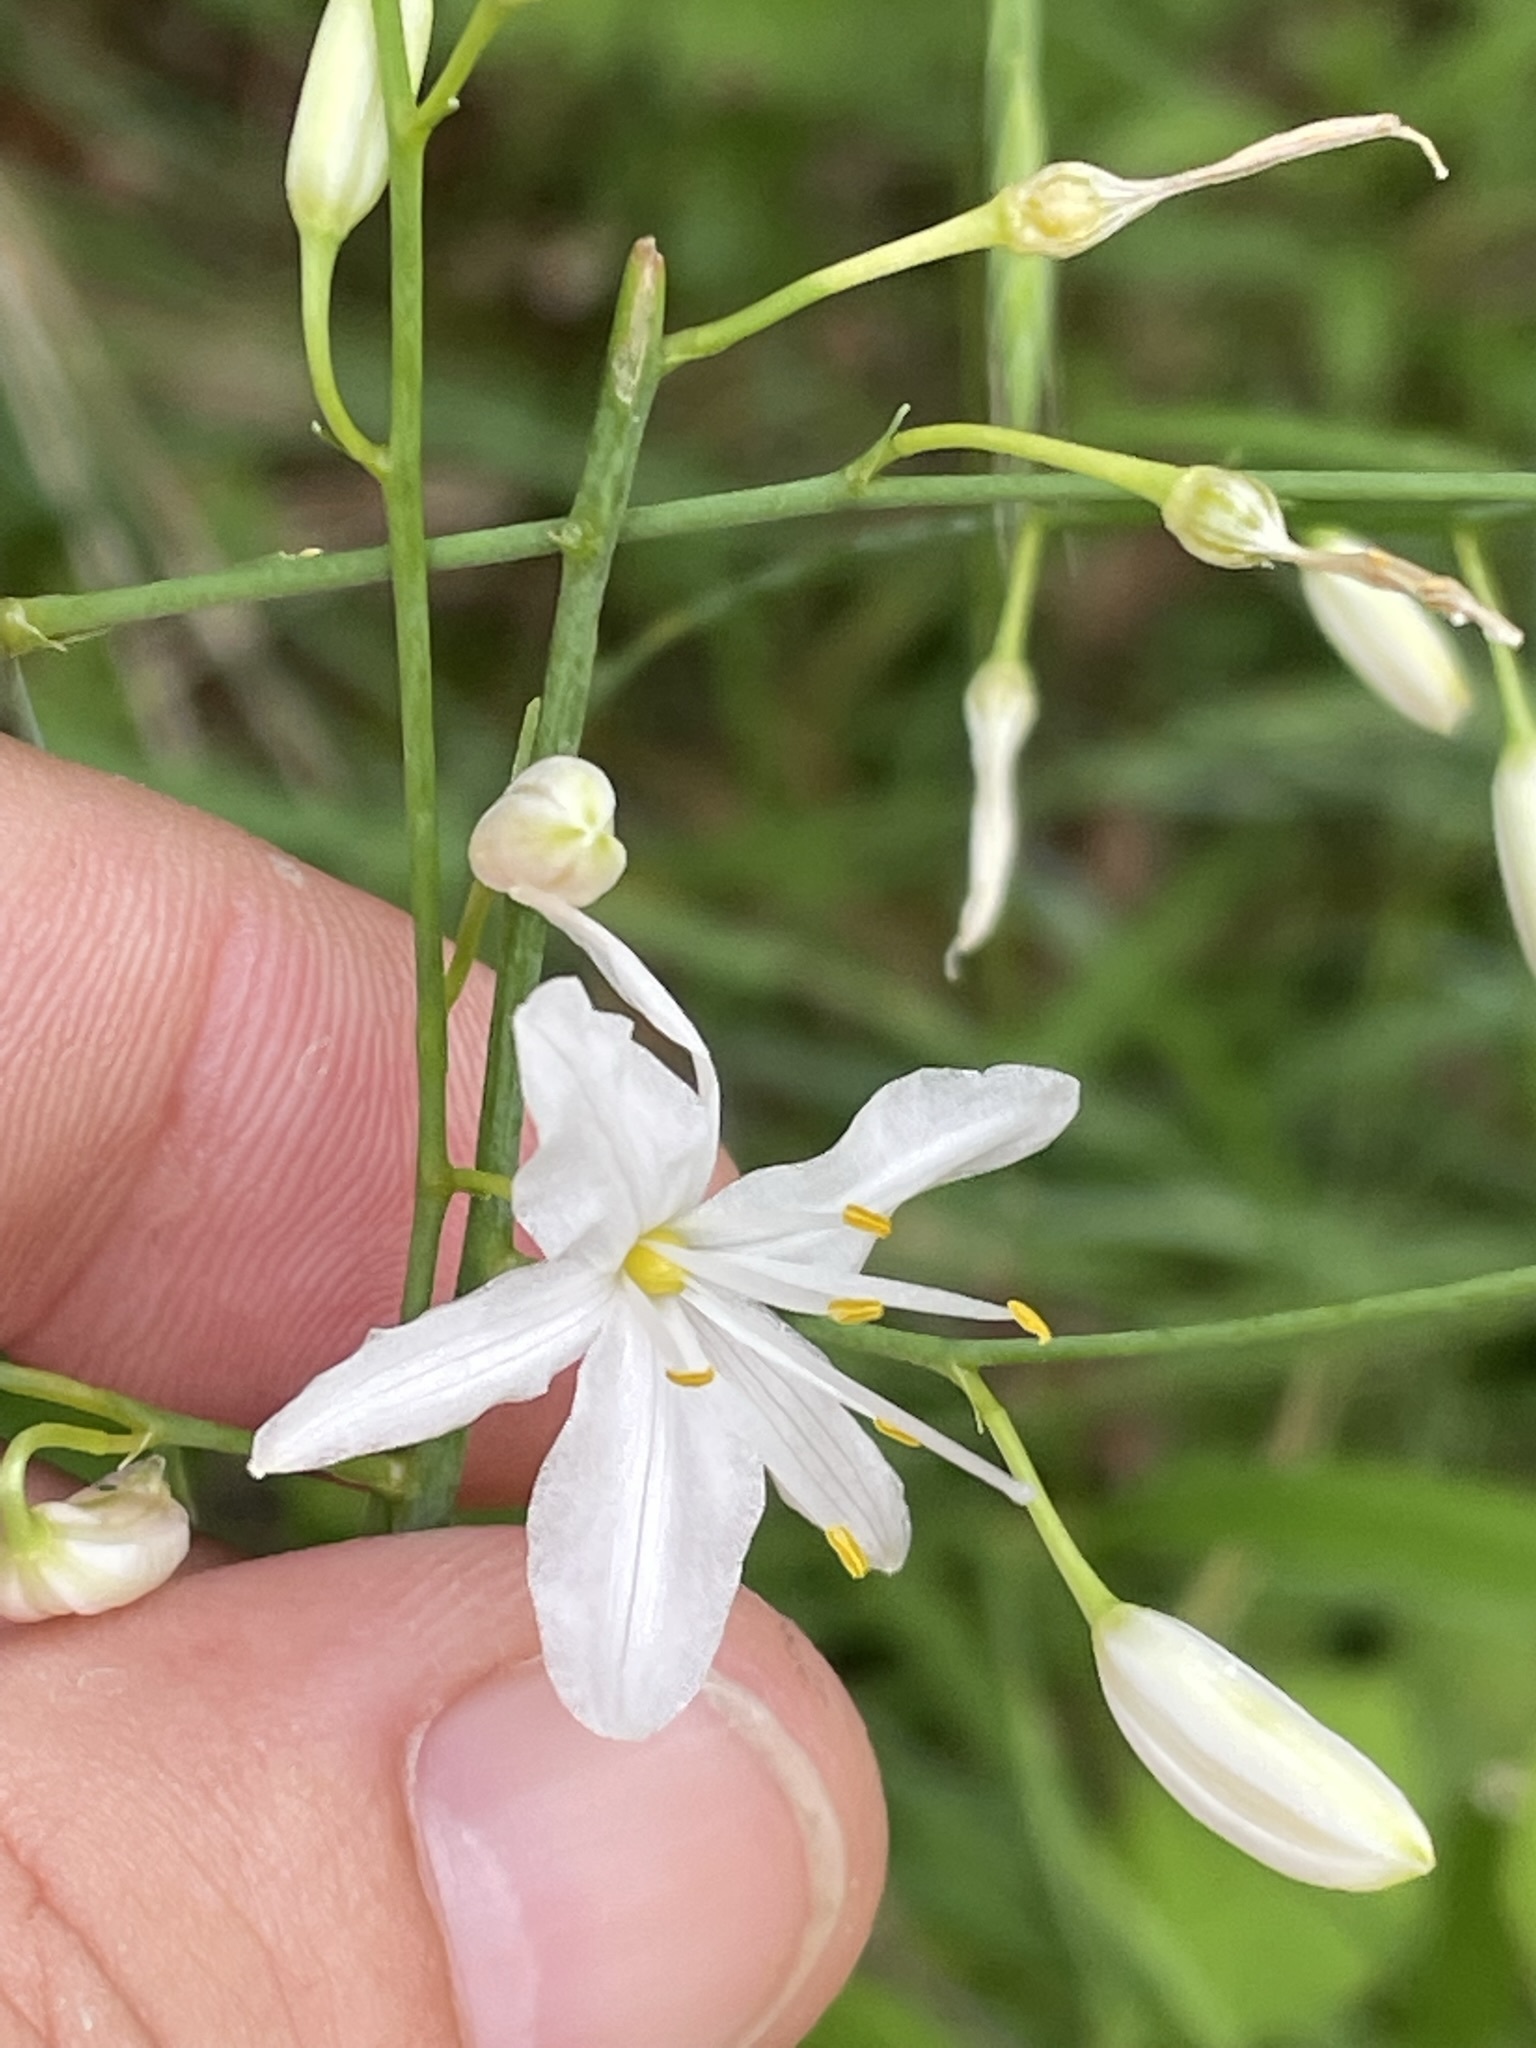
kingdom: Plantae
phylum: Tracheophyta
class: Liliopsida
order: Asparagales
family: Asparagaceae
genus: Anthericum
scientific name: Anthericum ramosum
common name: Branched st. bernard's-lily
